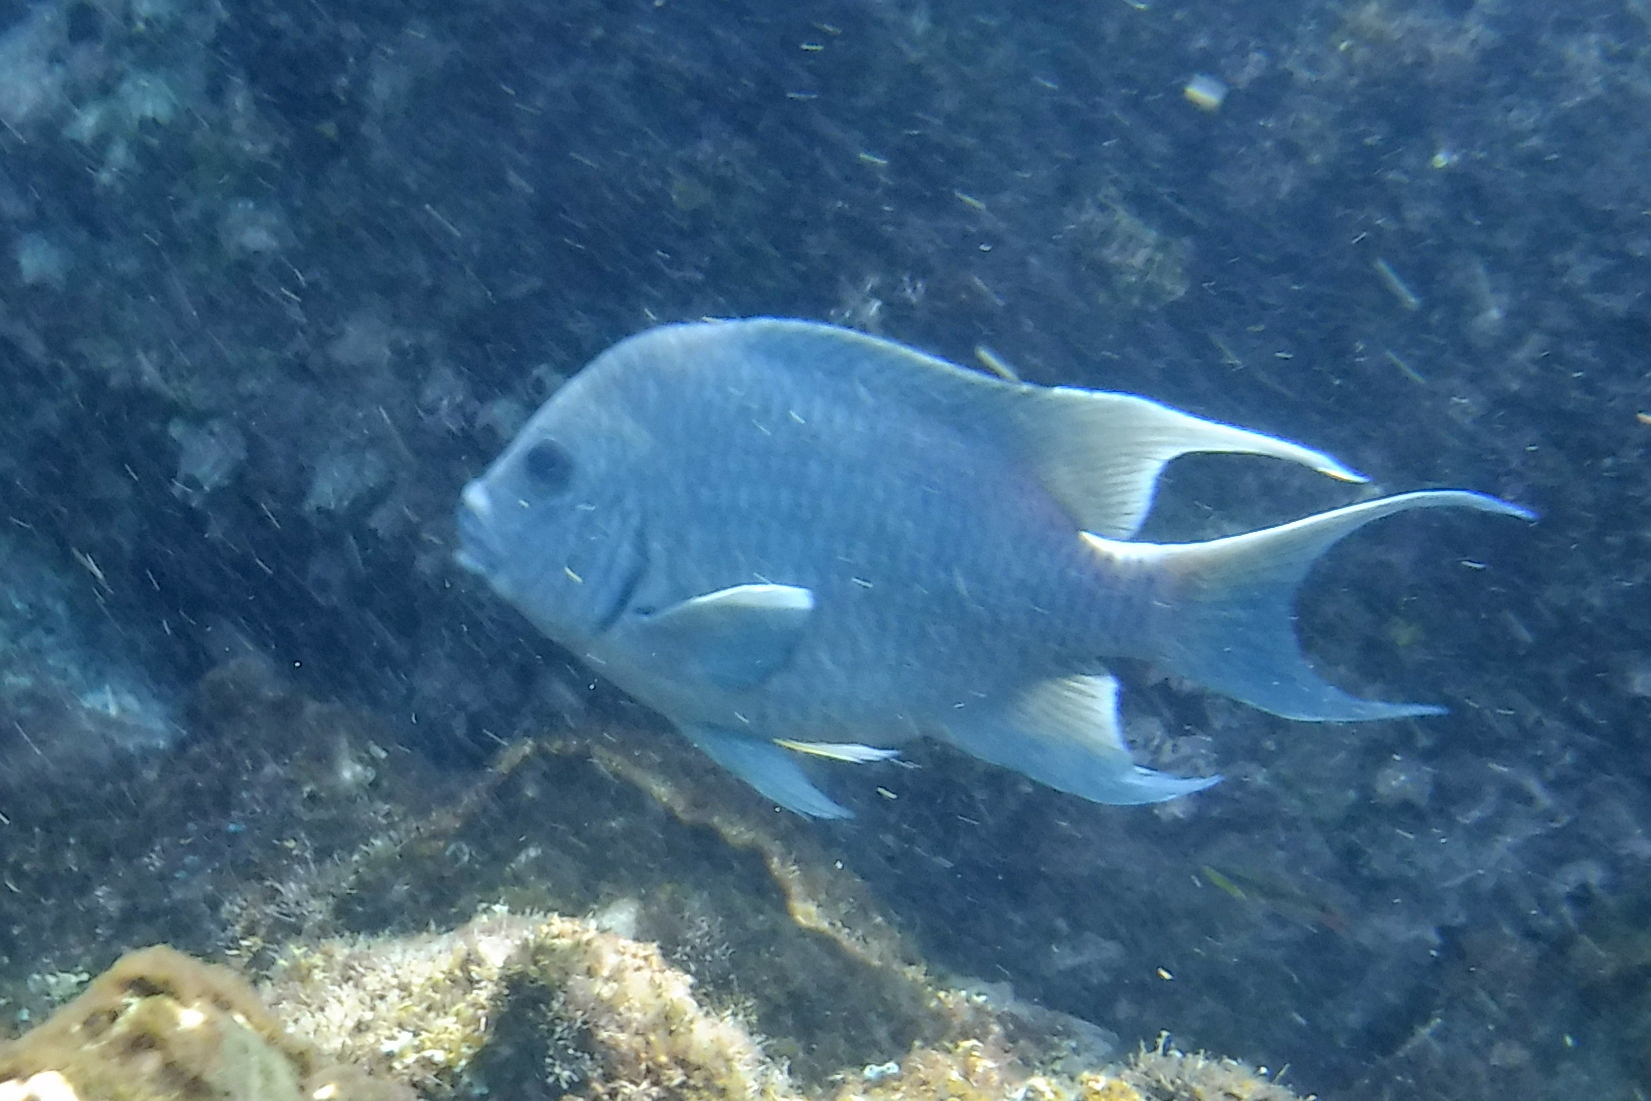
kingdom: Animalia
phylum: Chordata
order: Perciformes
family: Pomacentridae
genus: Microspathodon
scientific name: Microspathodon dorsalis
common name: Giant damselfish
